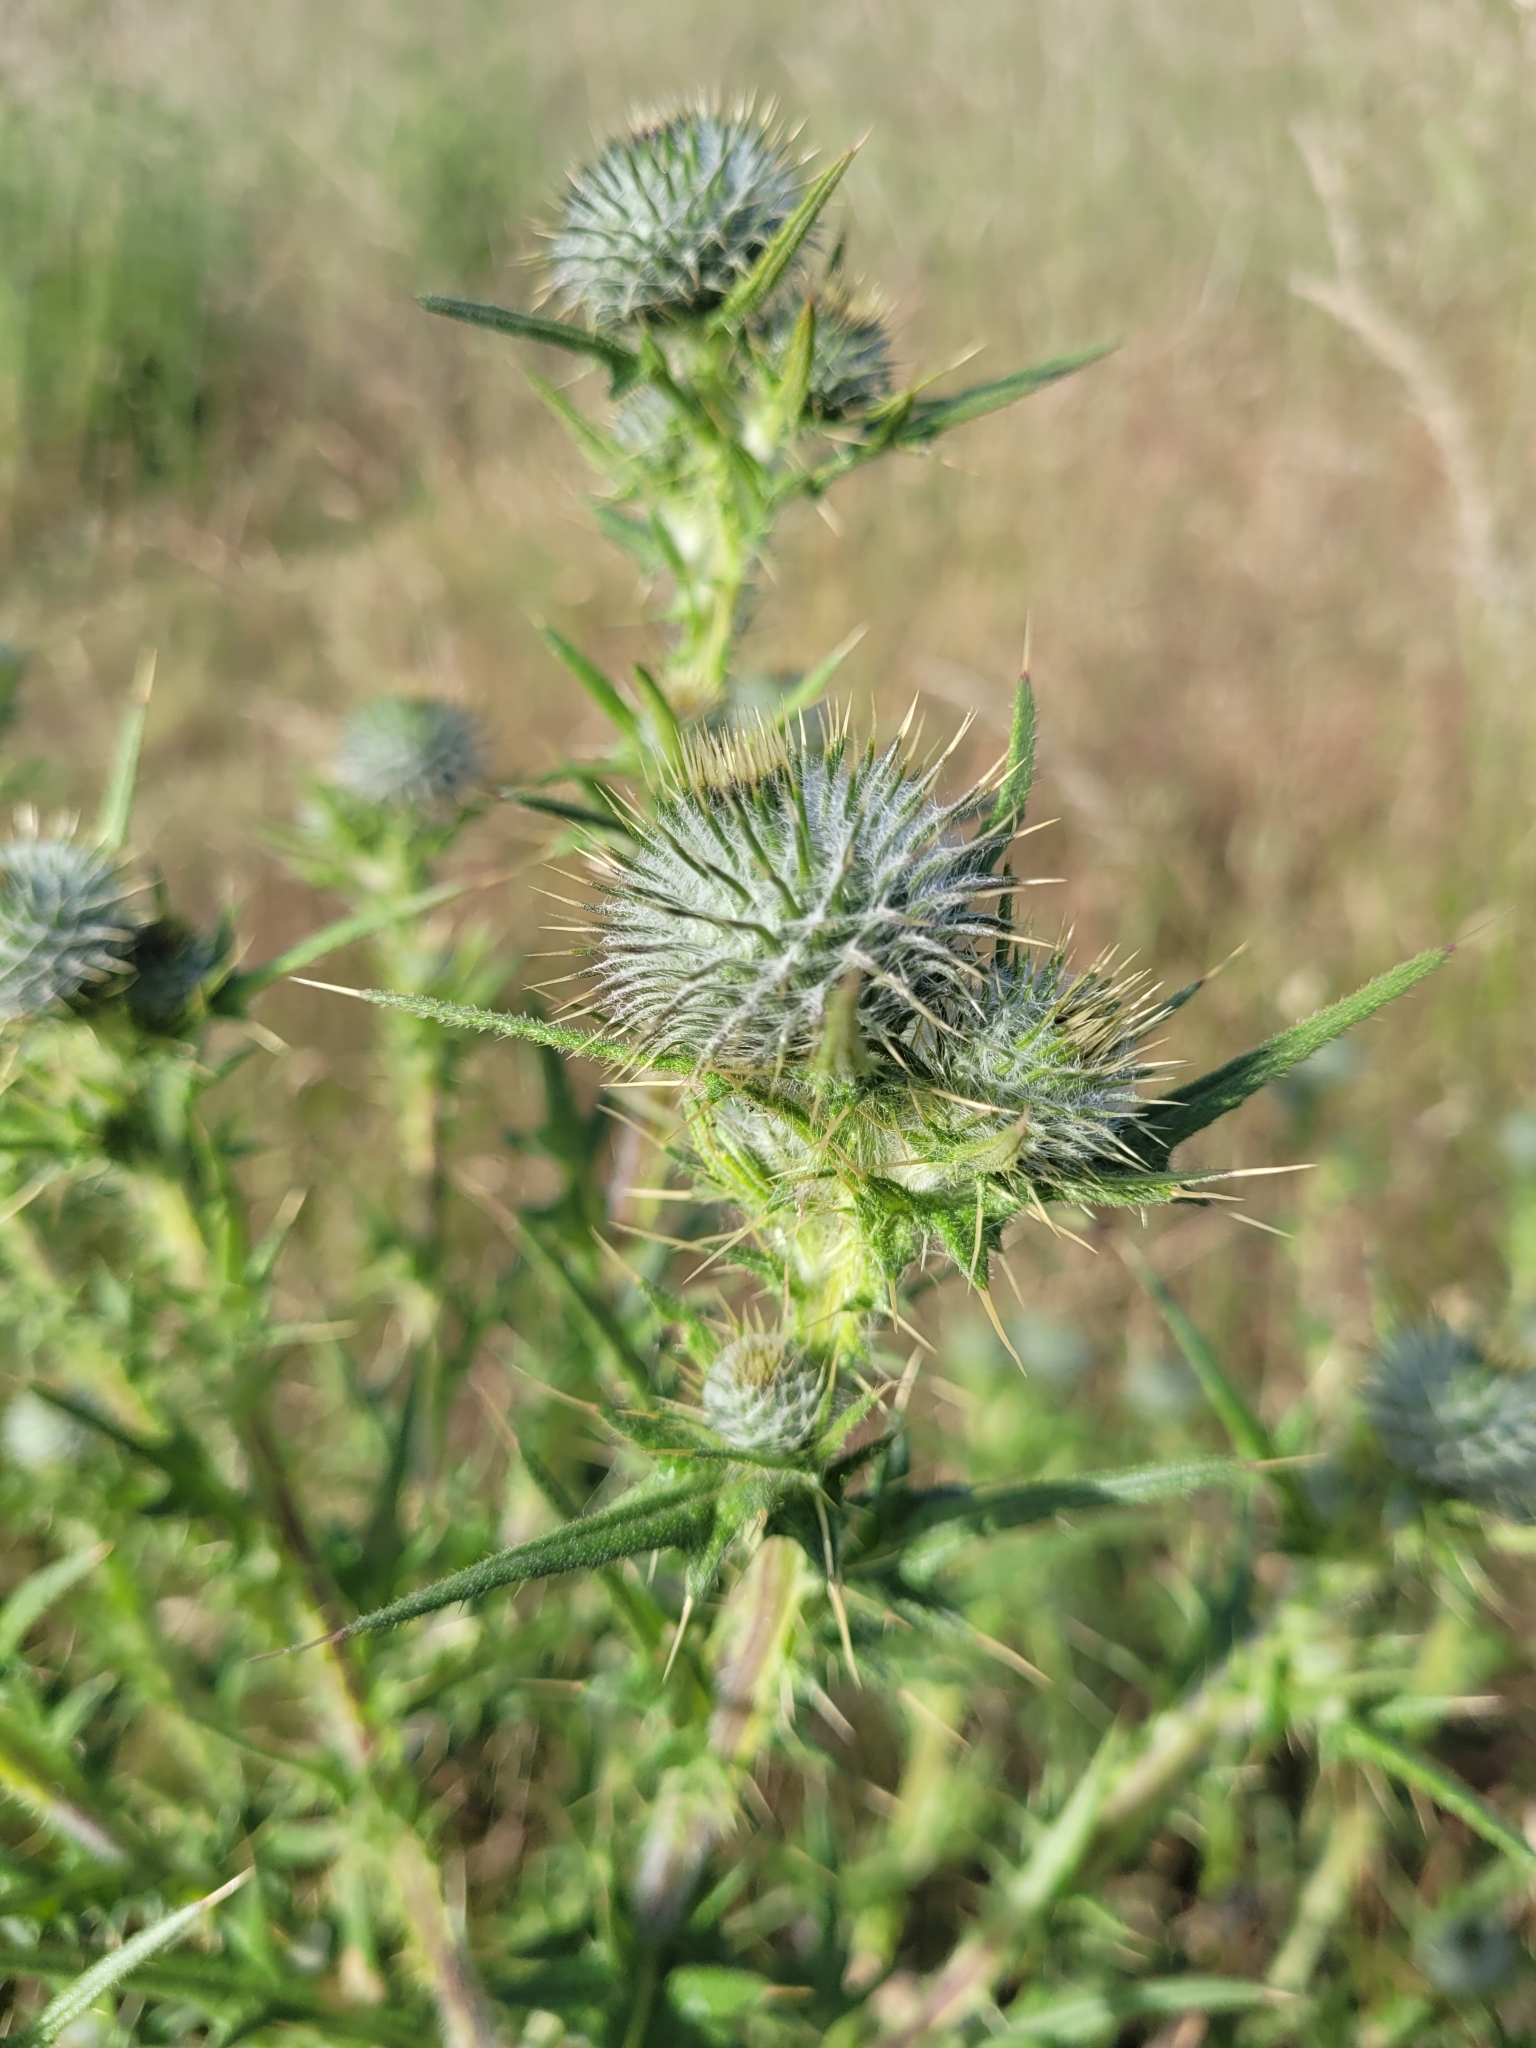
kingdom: Plantae
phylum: Tracheophyta
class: Magnoliopsida
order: Asterales
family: Asteraceae
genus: Cirsium
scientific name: Cirsium vulgare
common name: Bull thistle
